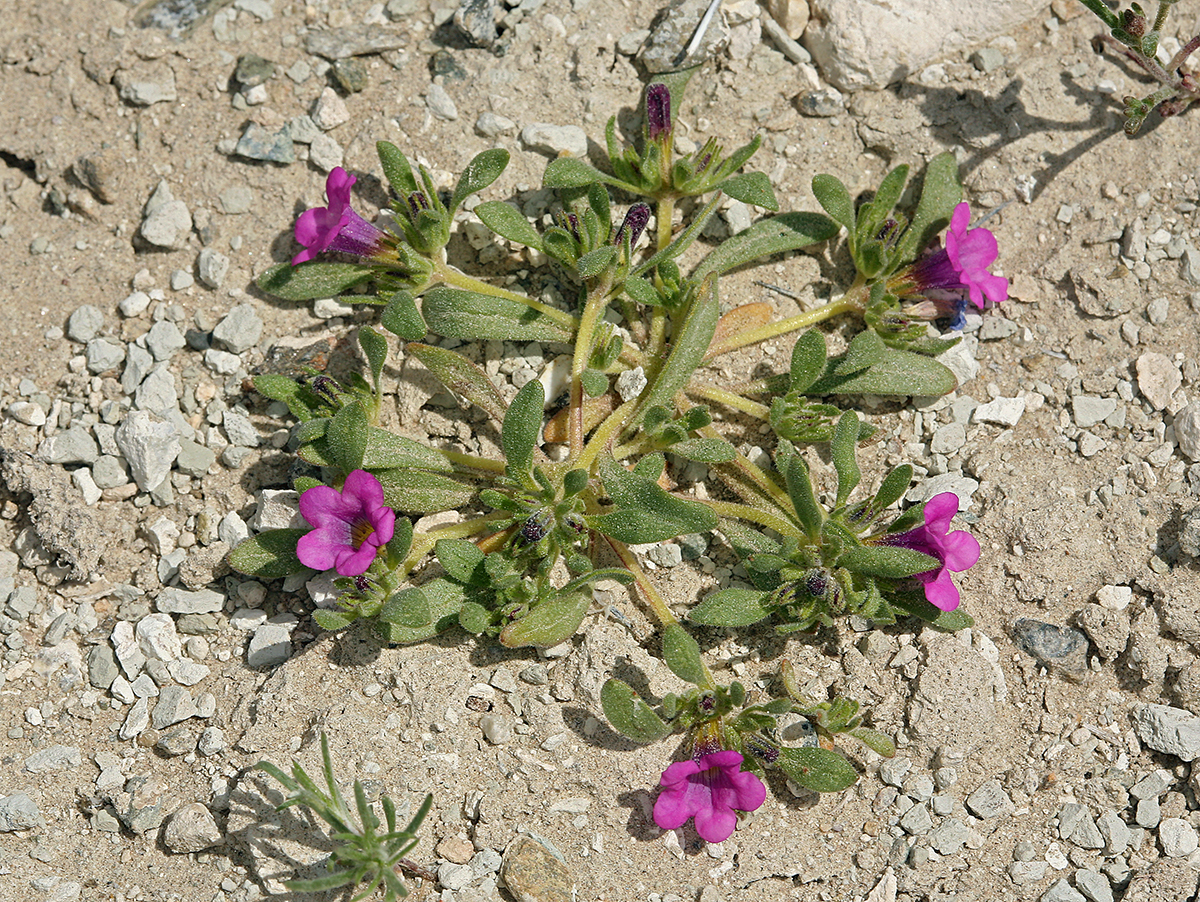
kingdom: Plantae
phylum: Tracheophyta
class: Magnoliopsida
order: Boraginales
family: Namaceae
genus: Nama
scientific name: Nama demissa
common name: Leafy nama
